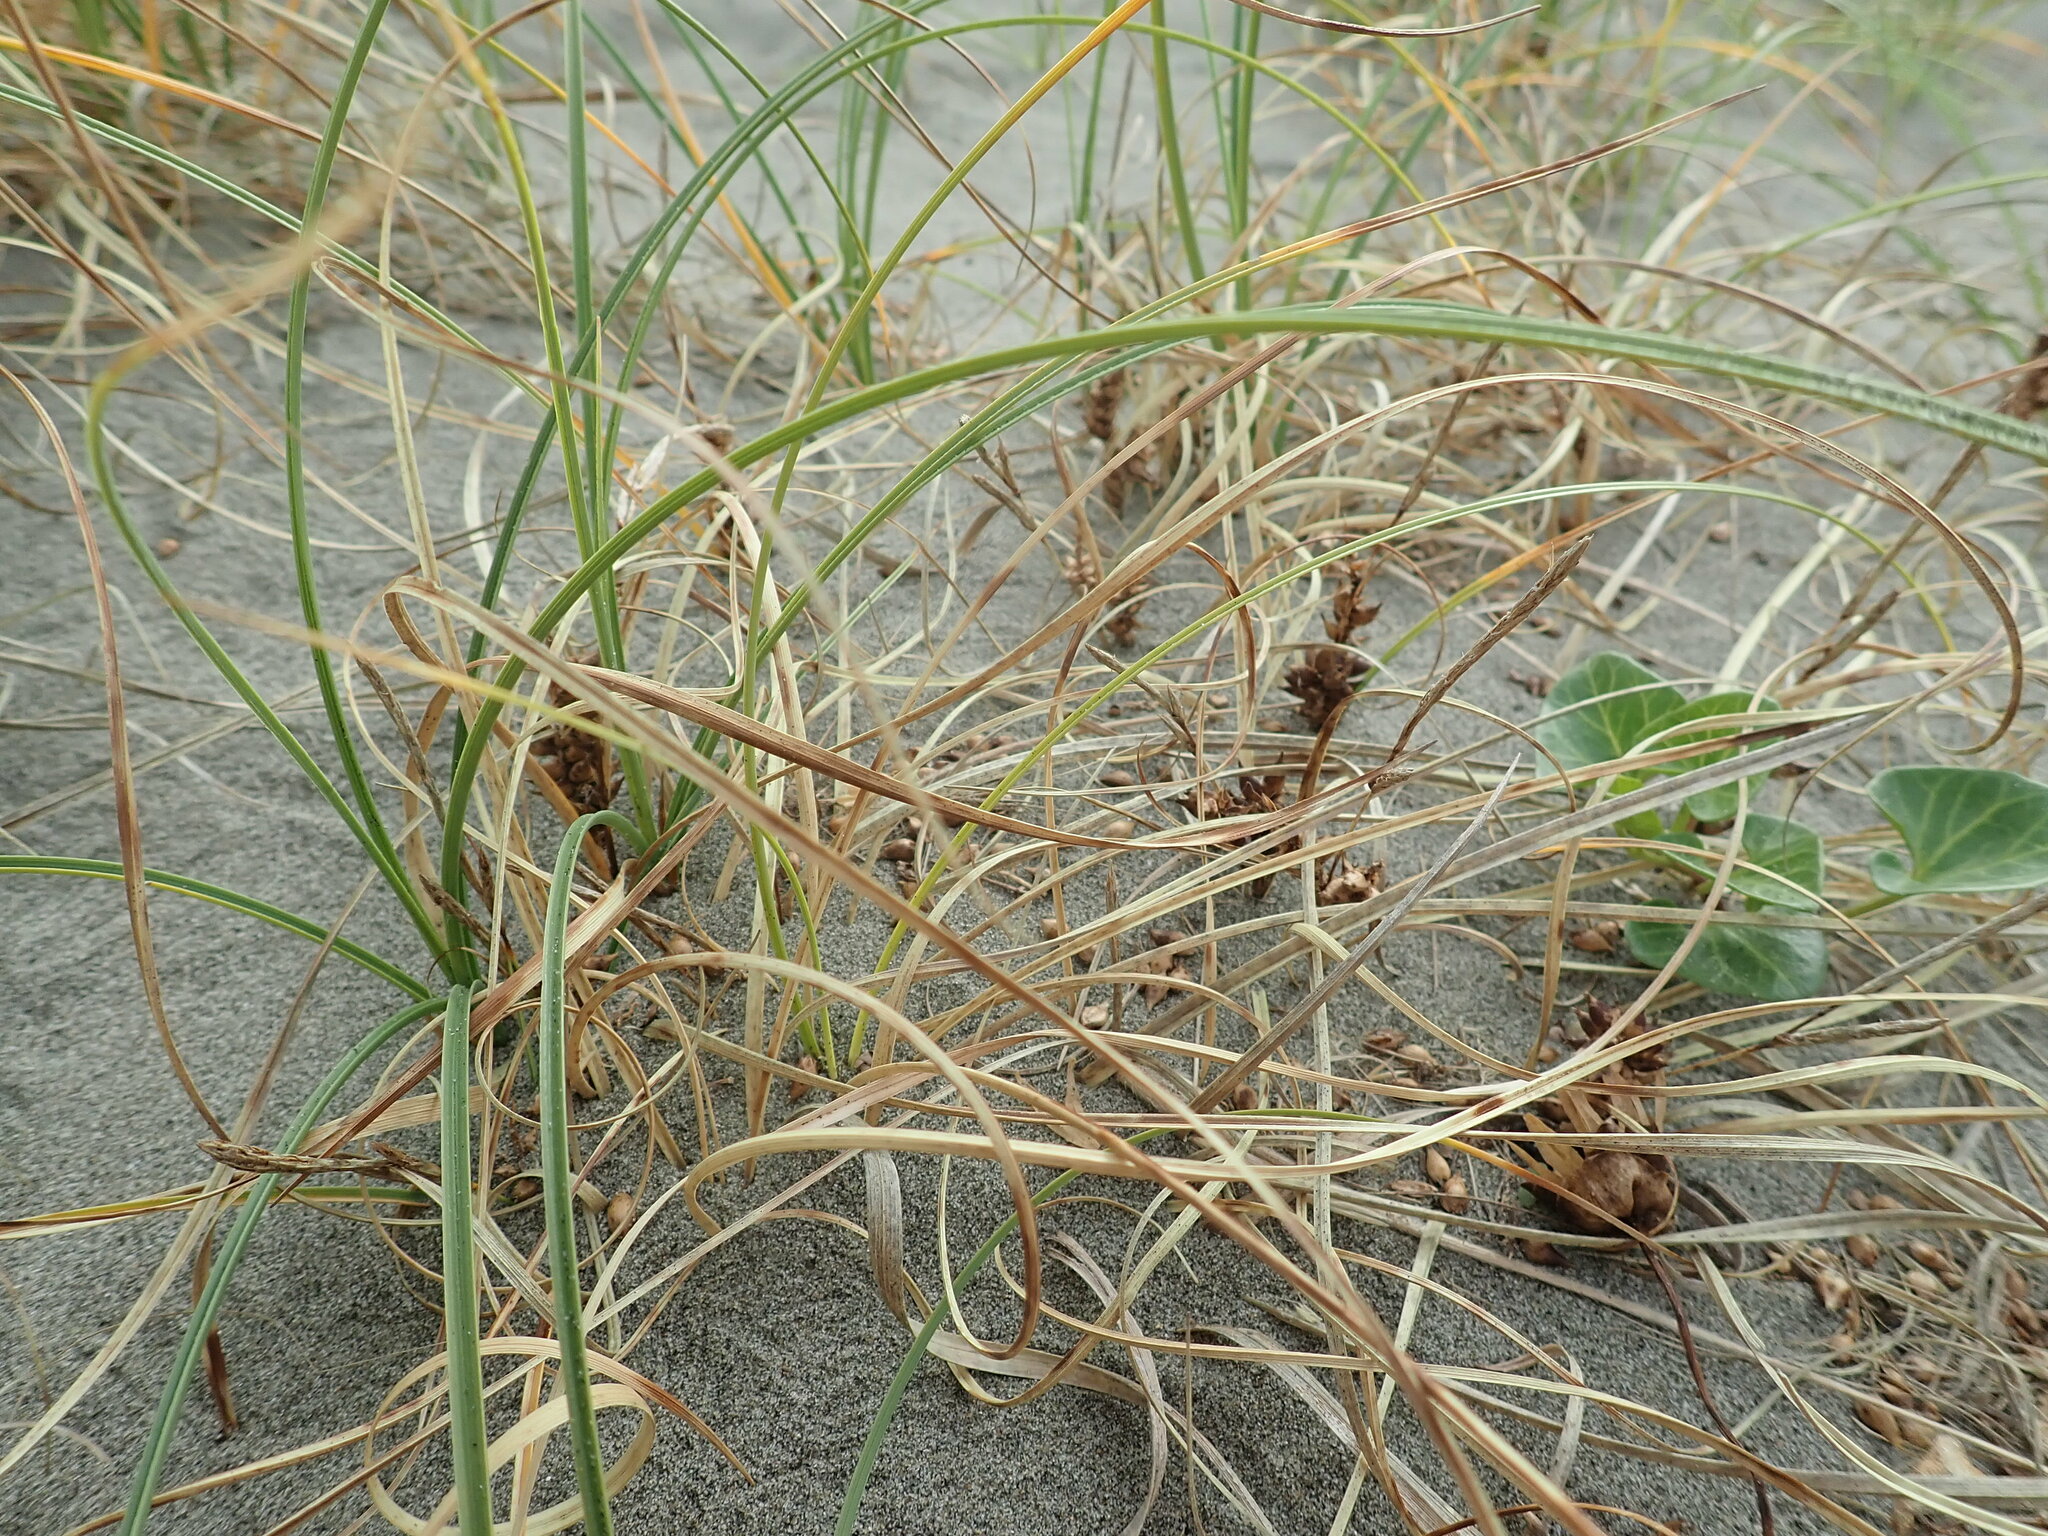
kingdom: Plantae
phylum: Tracheophyta
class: Liliopsida
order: Poales
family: Cyperaceae
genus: Carex
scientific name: Carex pumila
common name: Dwarf sedge
